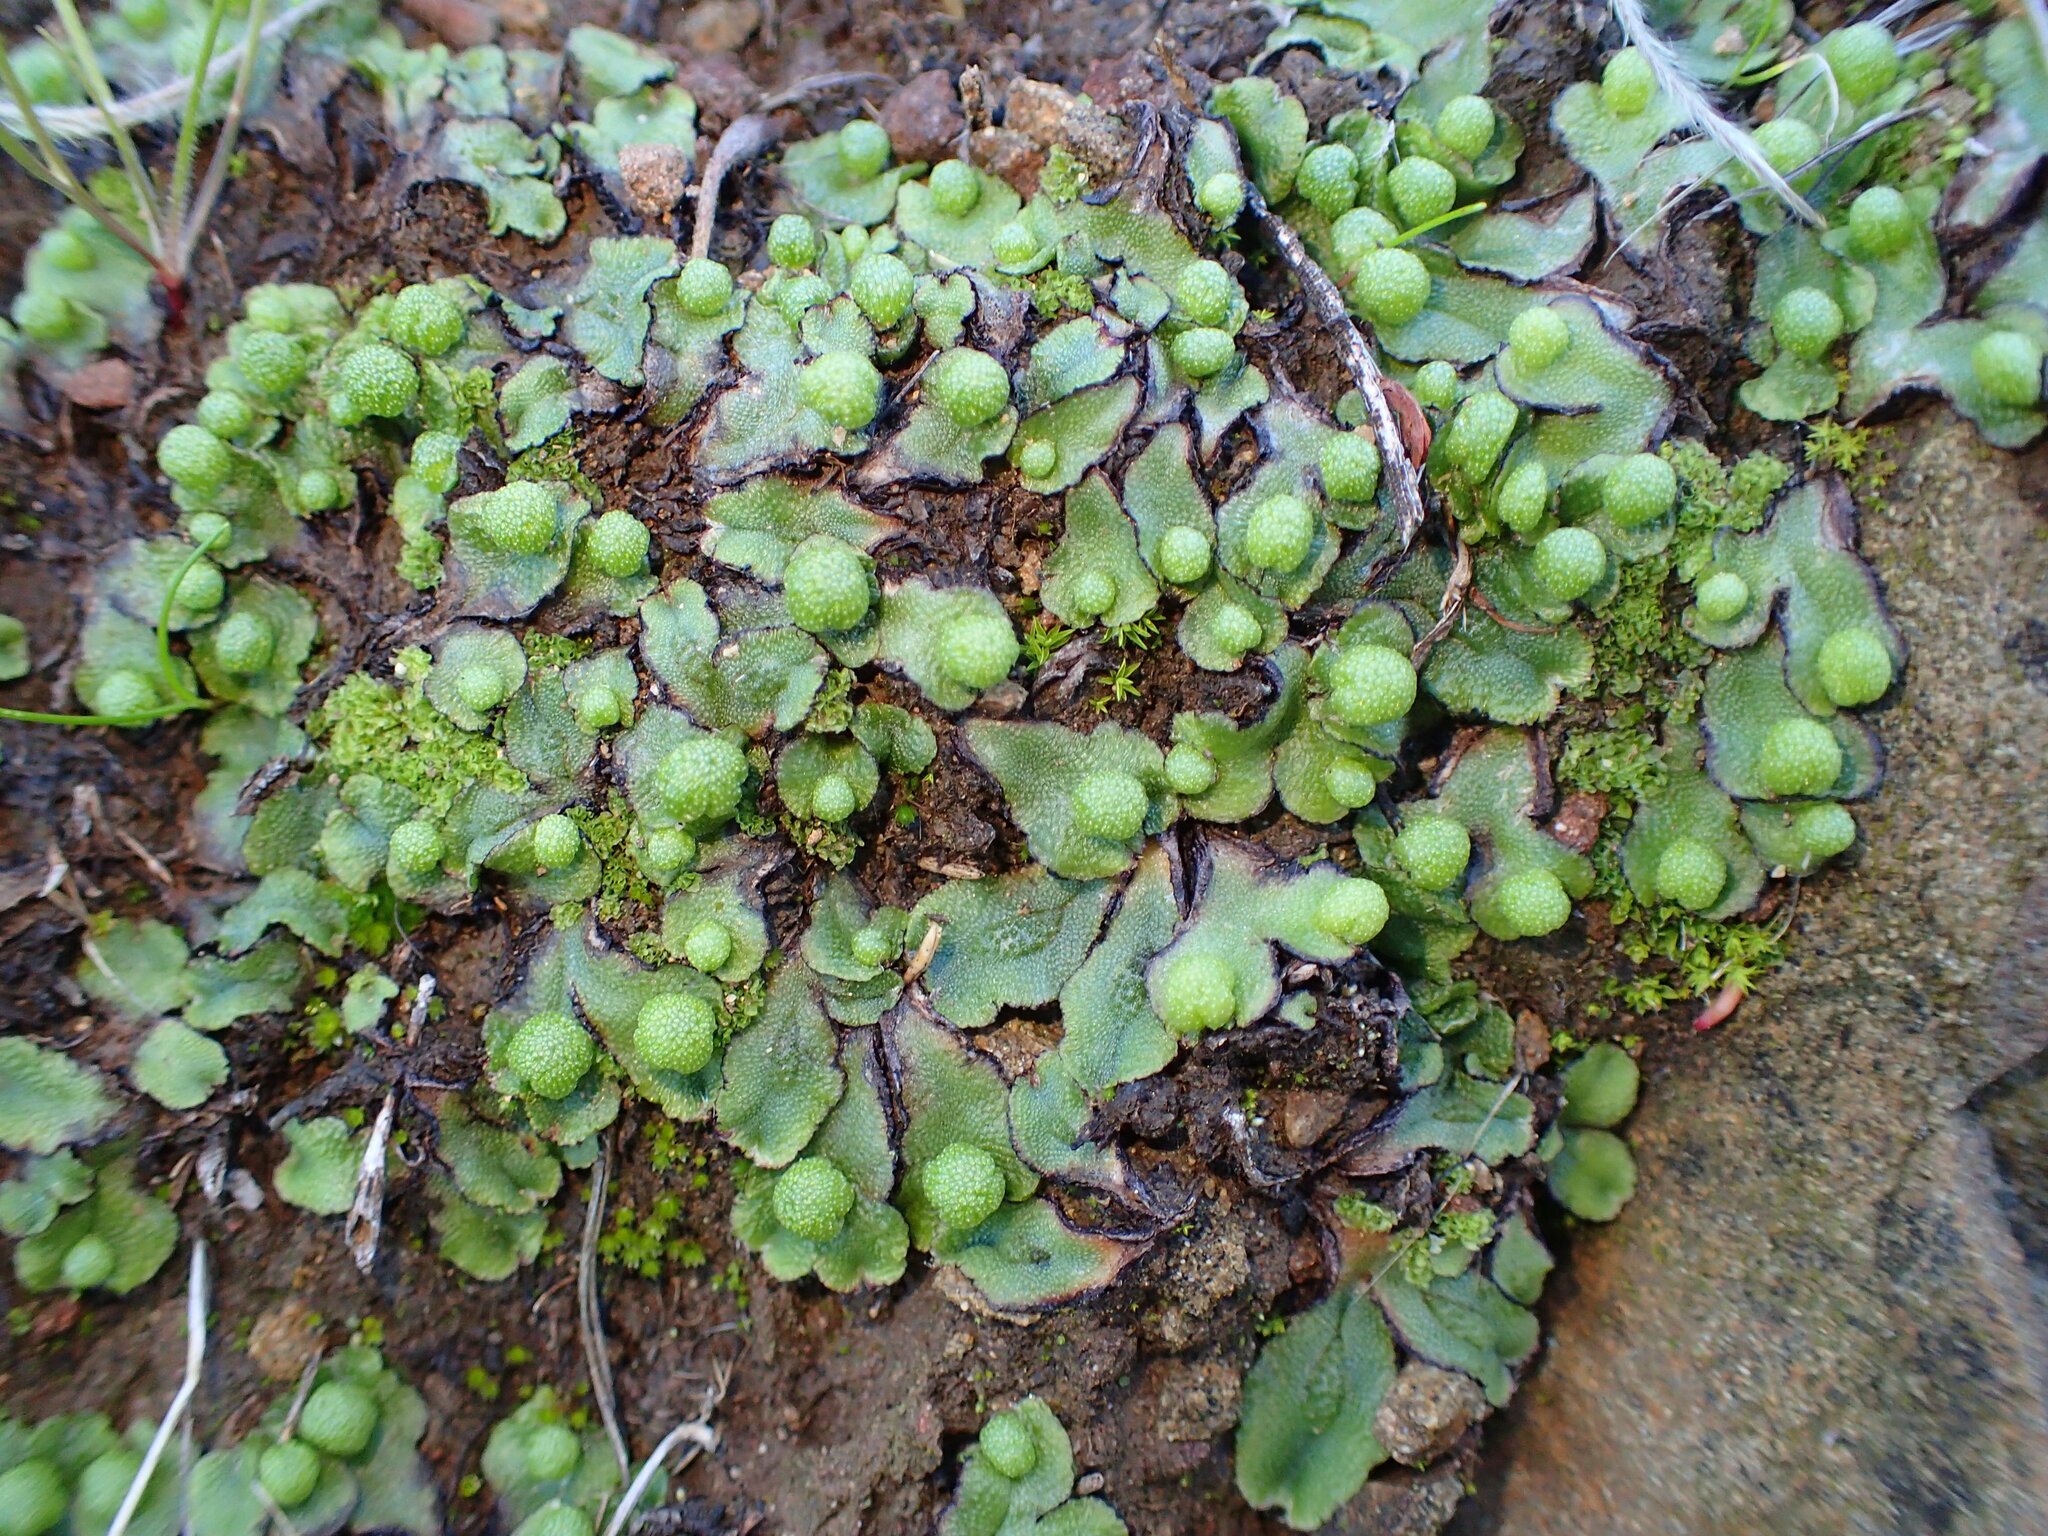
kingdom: Plantae
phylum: Marchantiophyta
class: Marchantiopsida
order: Marchantiales
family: Aytoniaceae
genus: Asterella
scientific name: Asterella californica
